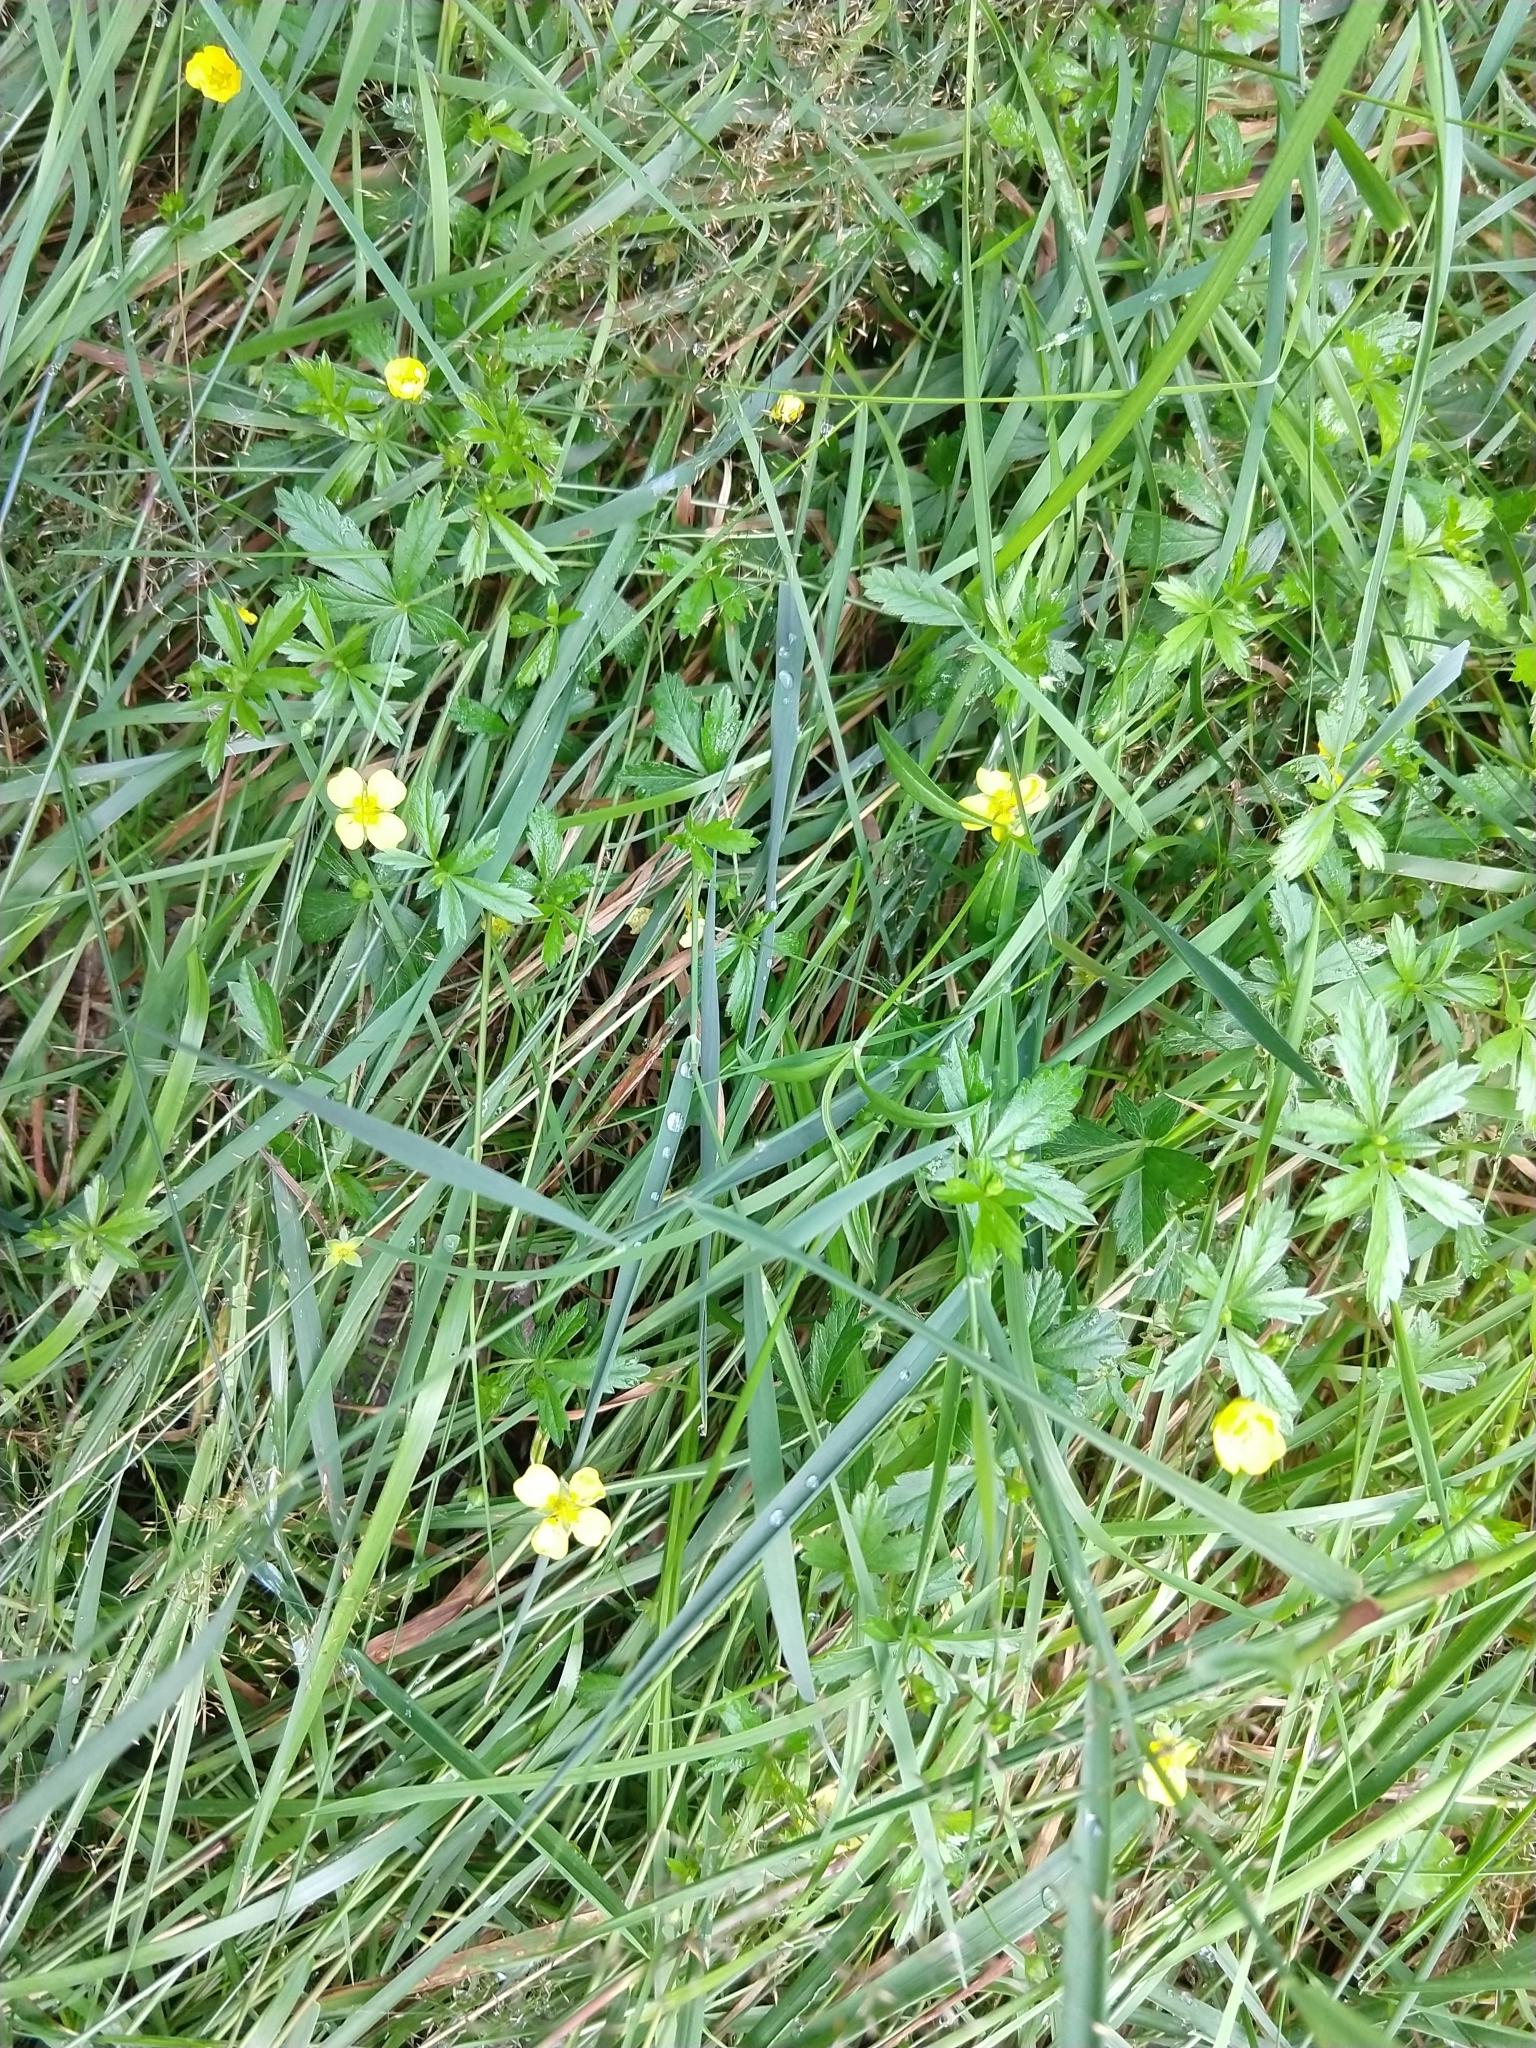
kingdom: Plantae
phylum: Tracheophyta
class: Magnoliopsida
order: Rosales
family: Rosaceae
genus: Potentilla
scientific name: Potentilla erecta
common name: Tormentil
